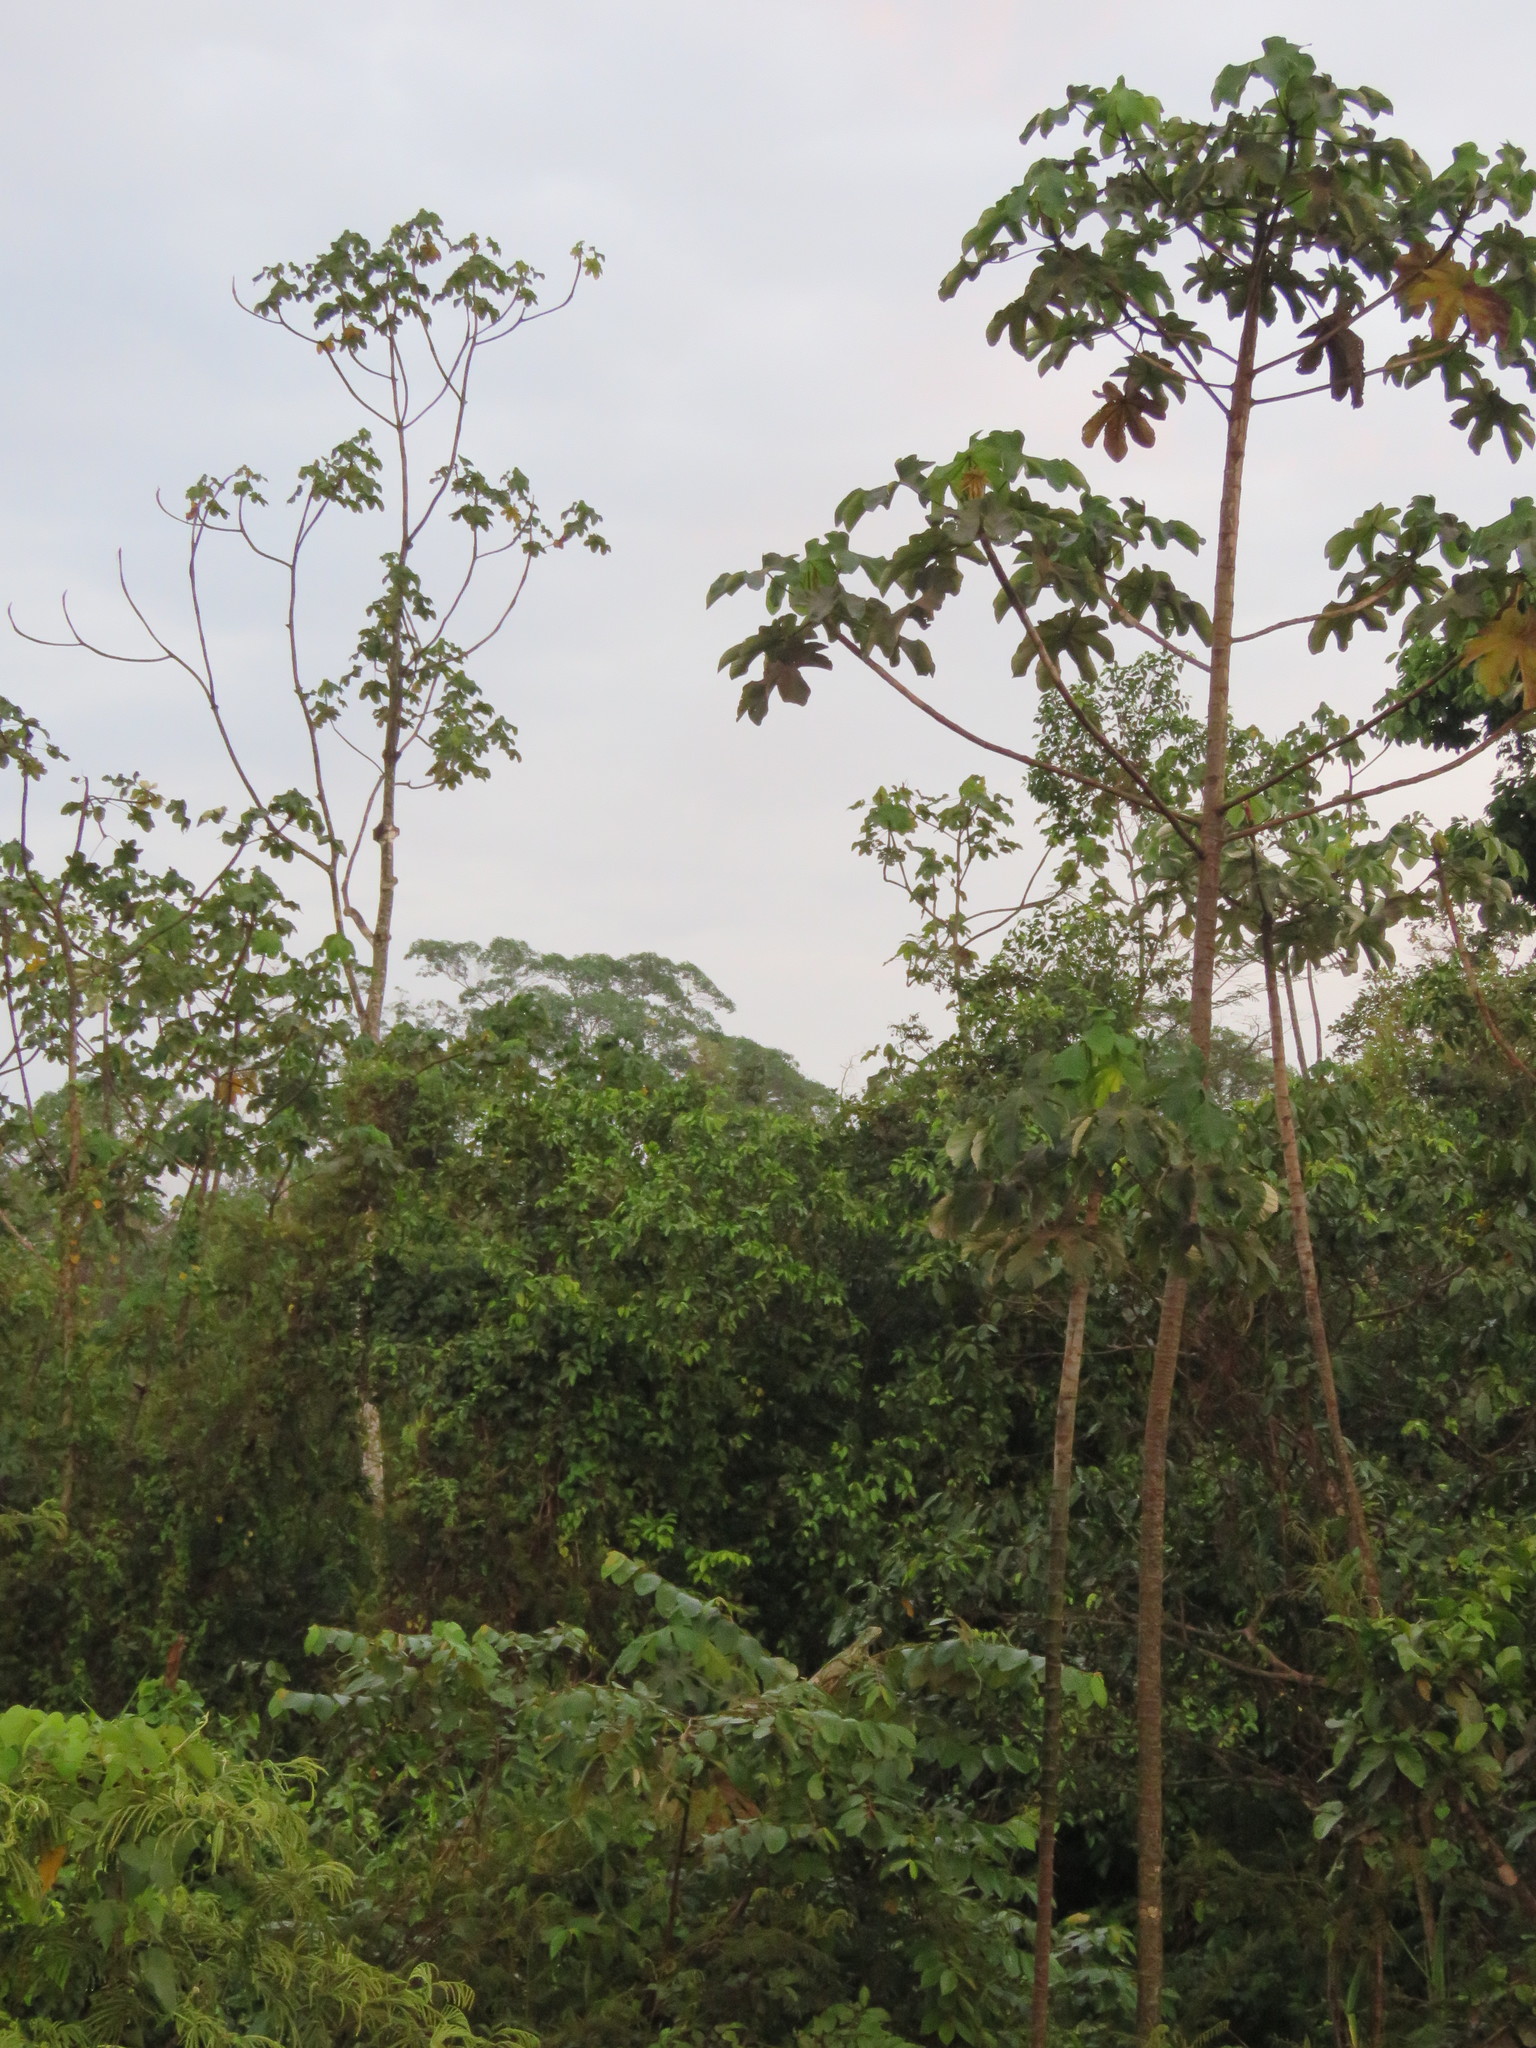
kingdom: Animalia
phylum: Chordata
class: Aves
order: Passeriformes
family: Furnariidae
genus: Xiphorhynchus
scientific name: Xiphorhynchus elegans
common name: Elegant woodcreeper
